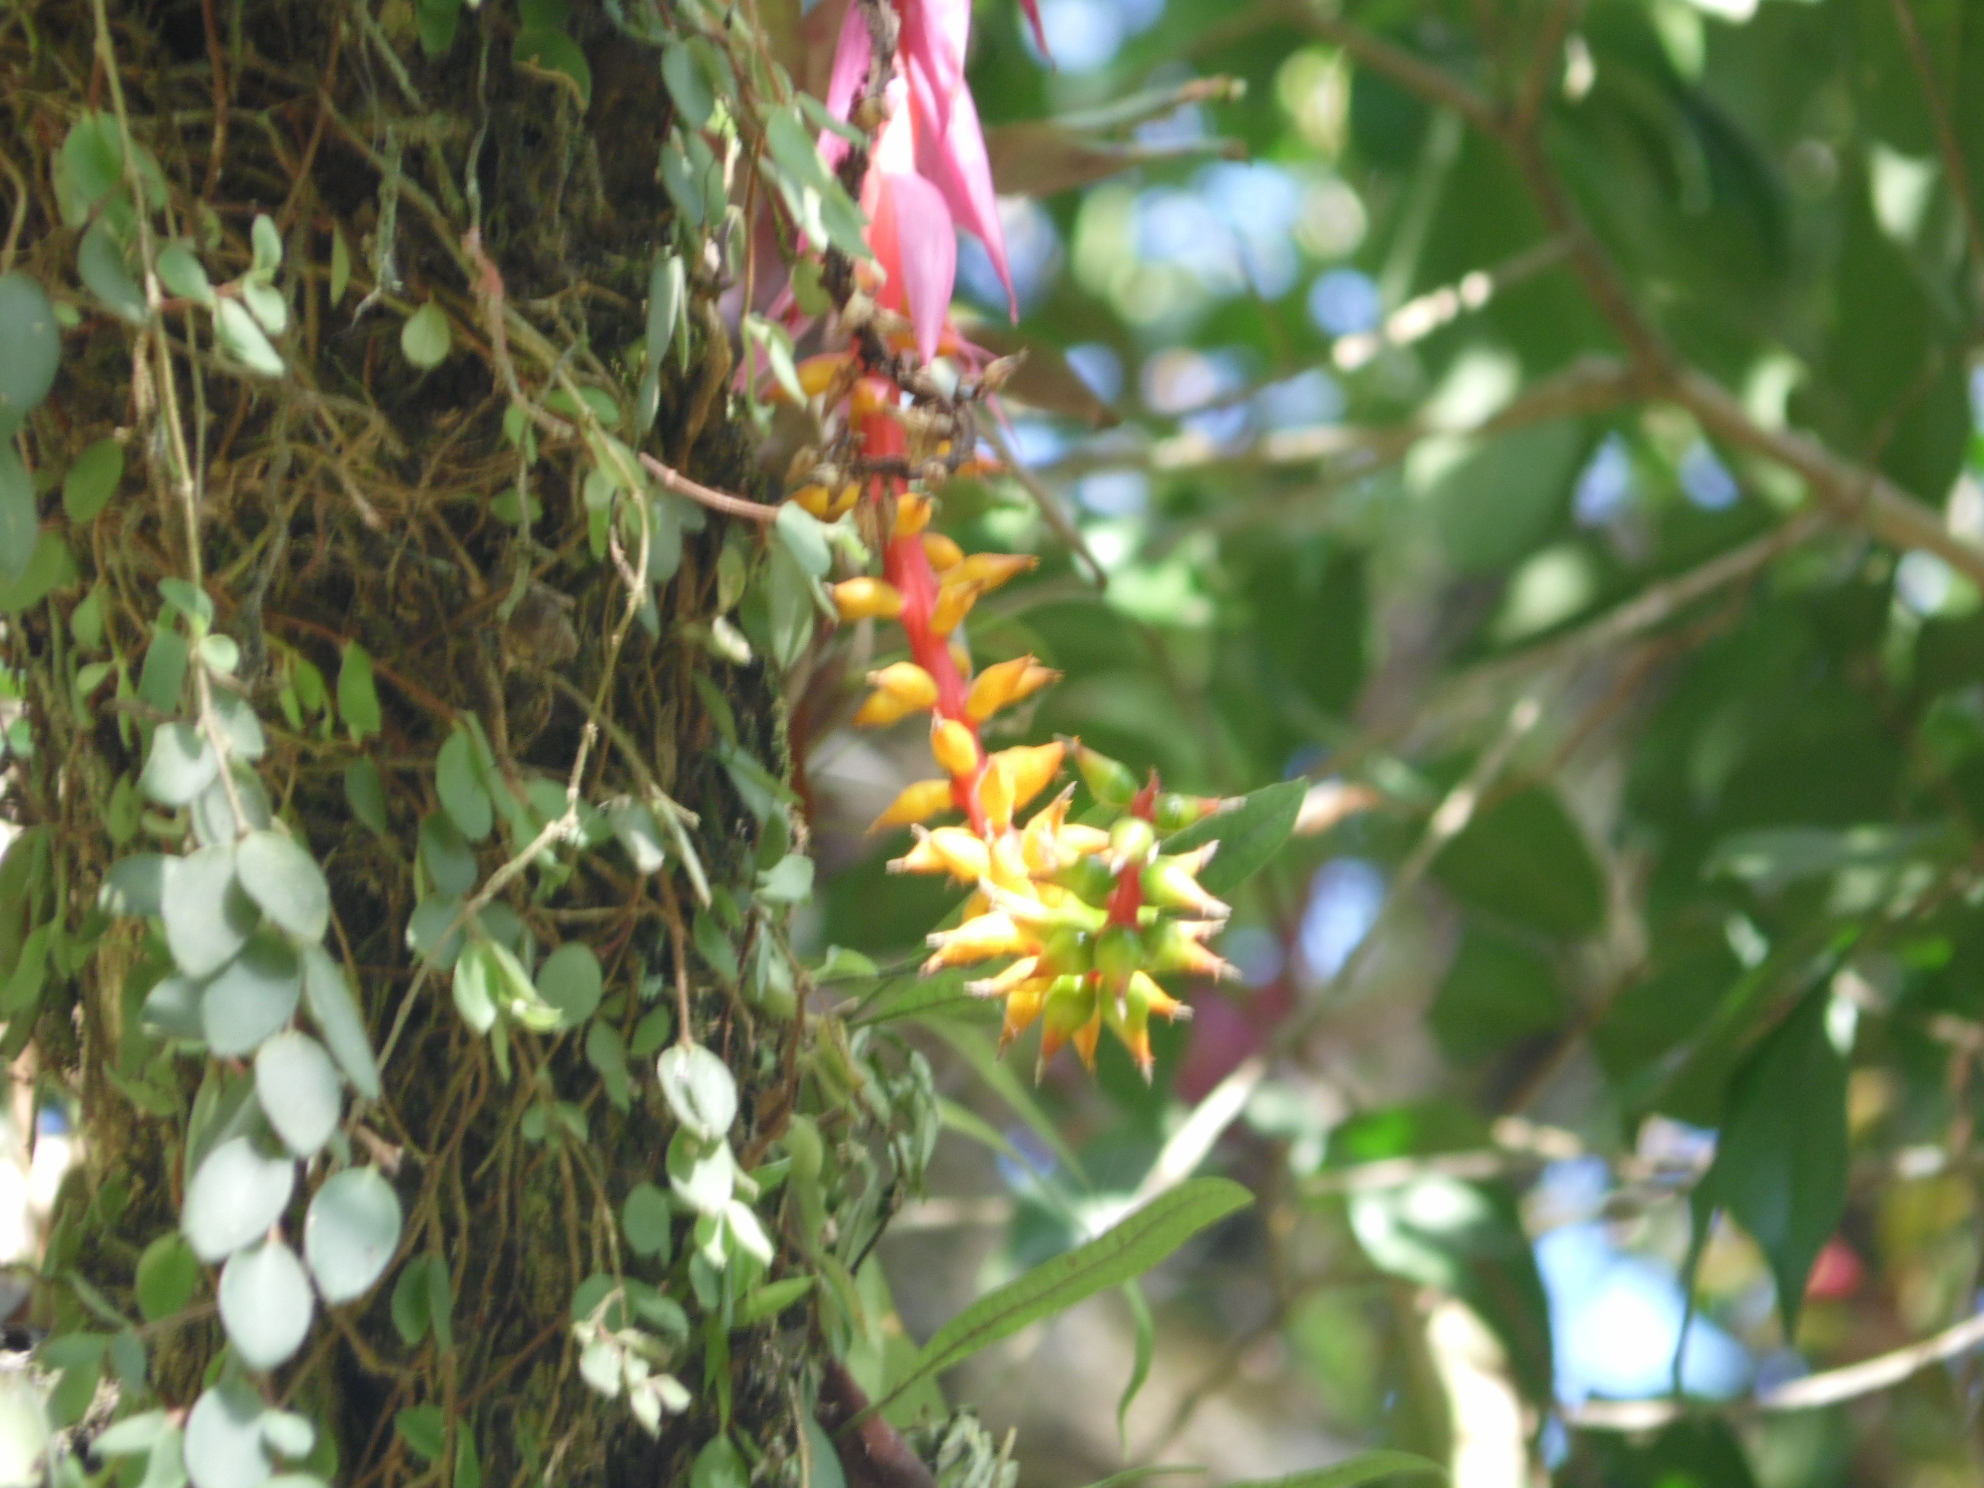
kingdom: Plantae
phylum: Tracheophyta
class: Liliopsida
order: Poales
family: Bromeliaceae
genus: Aechmea
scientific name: Aechmea nudicaulis
